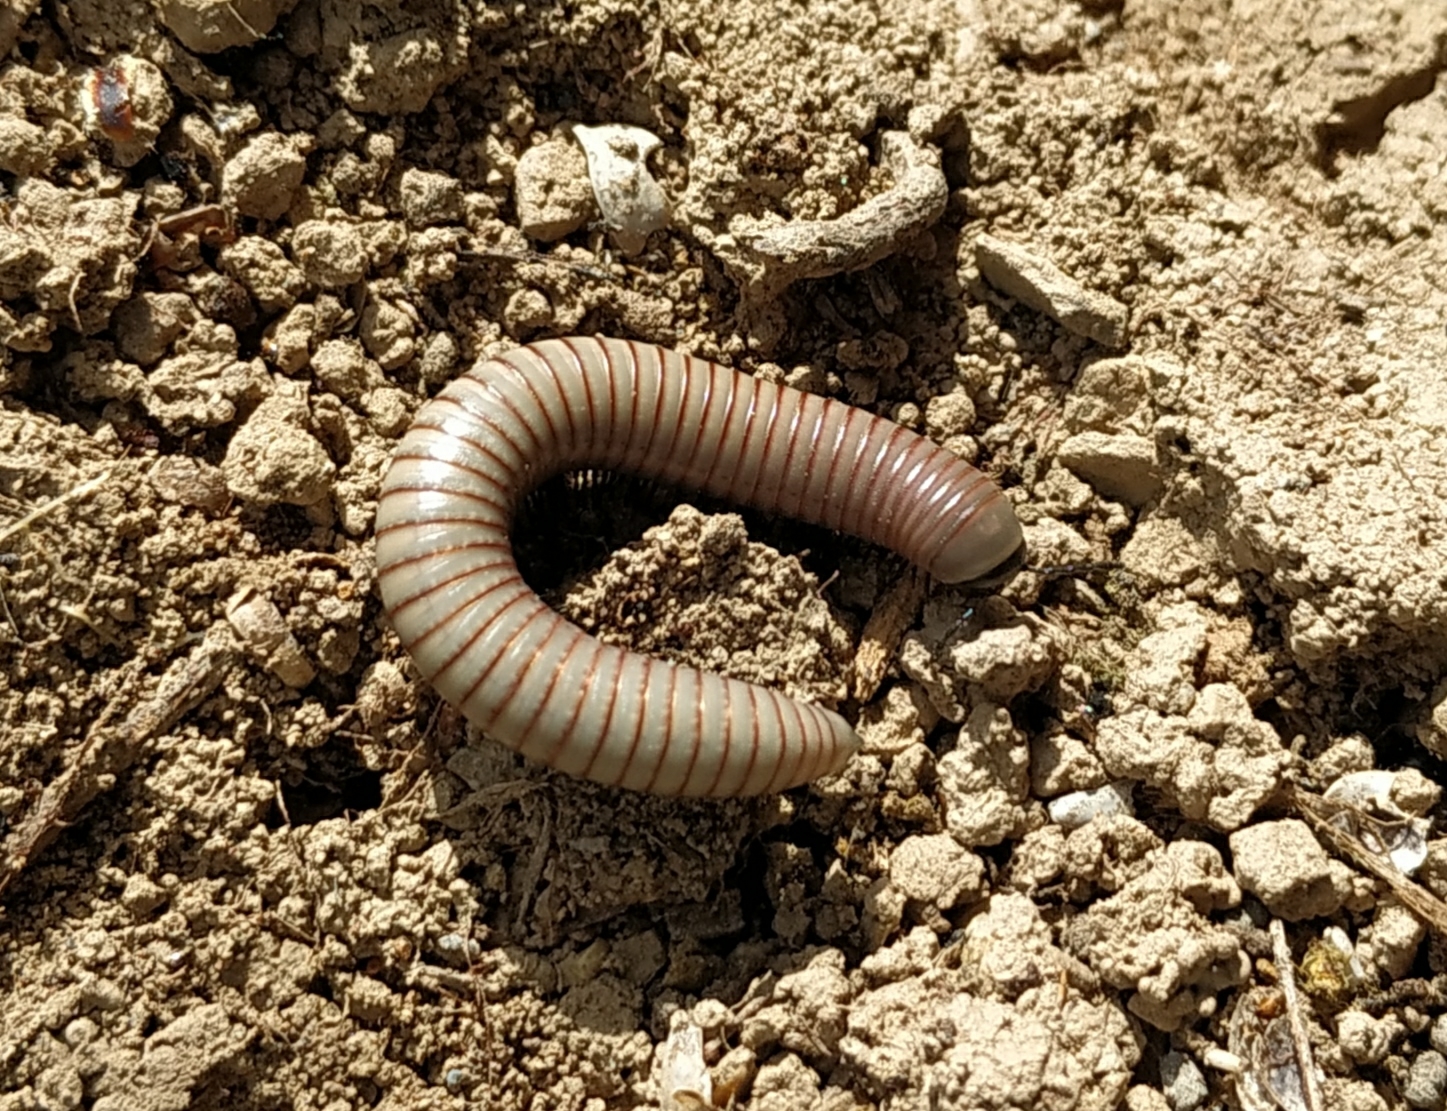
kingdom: Animalia
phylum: Arthropoda
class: Diplopoda
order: Julida
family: Julidae
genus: Ommatoiulus
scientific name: Ommatoiulus rutilans
